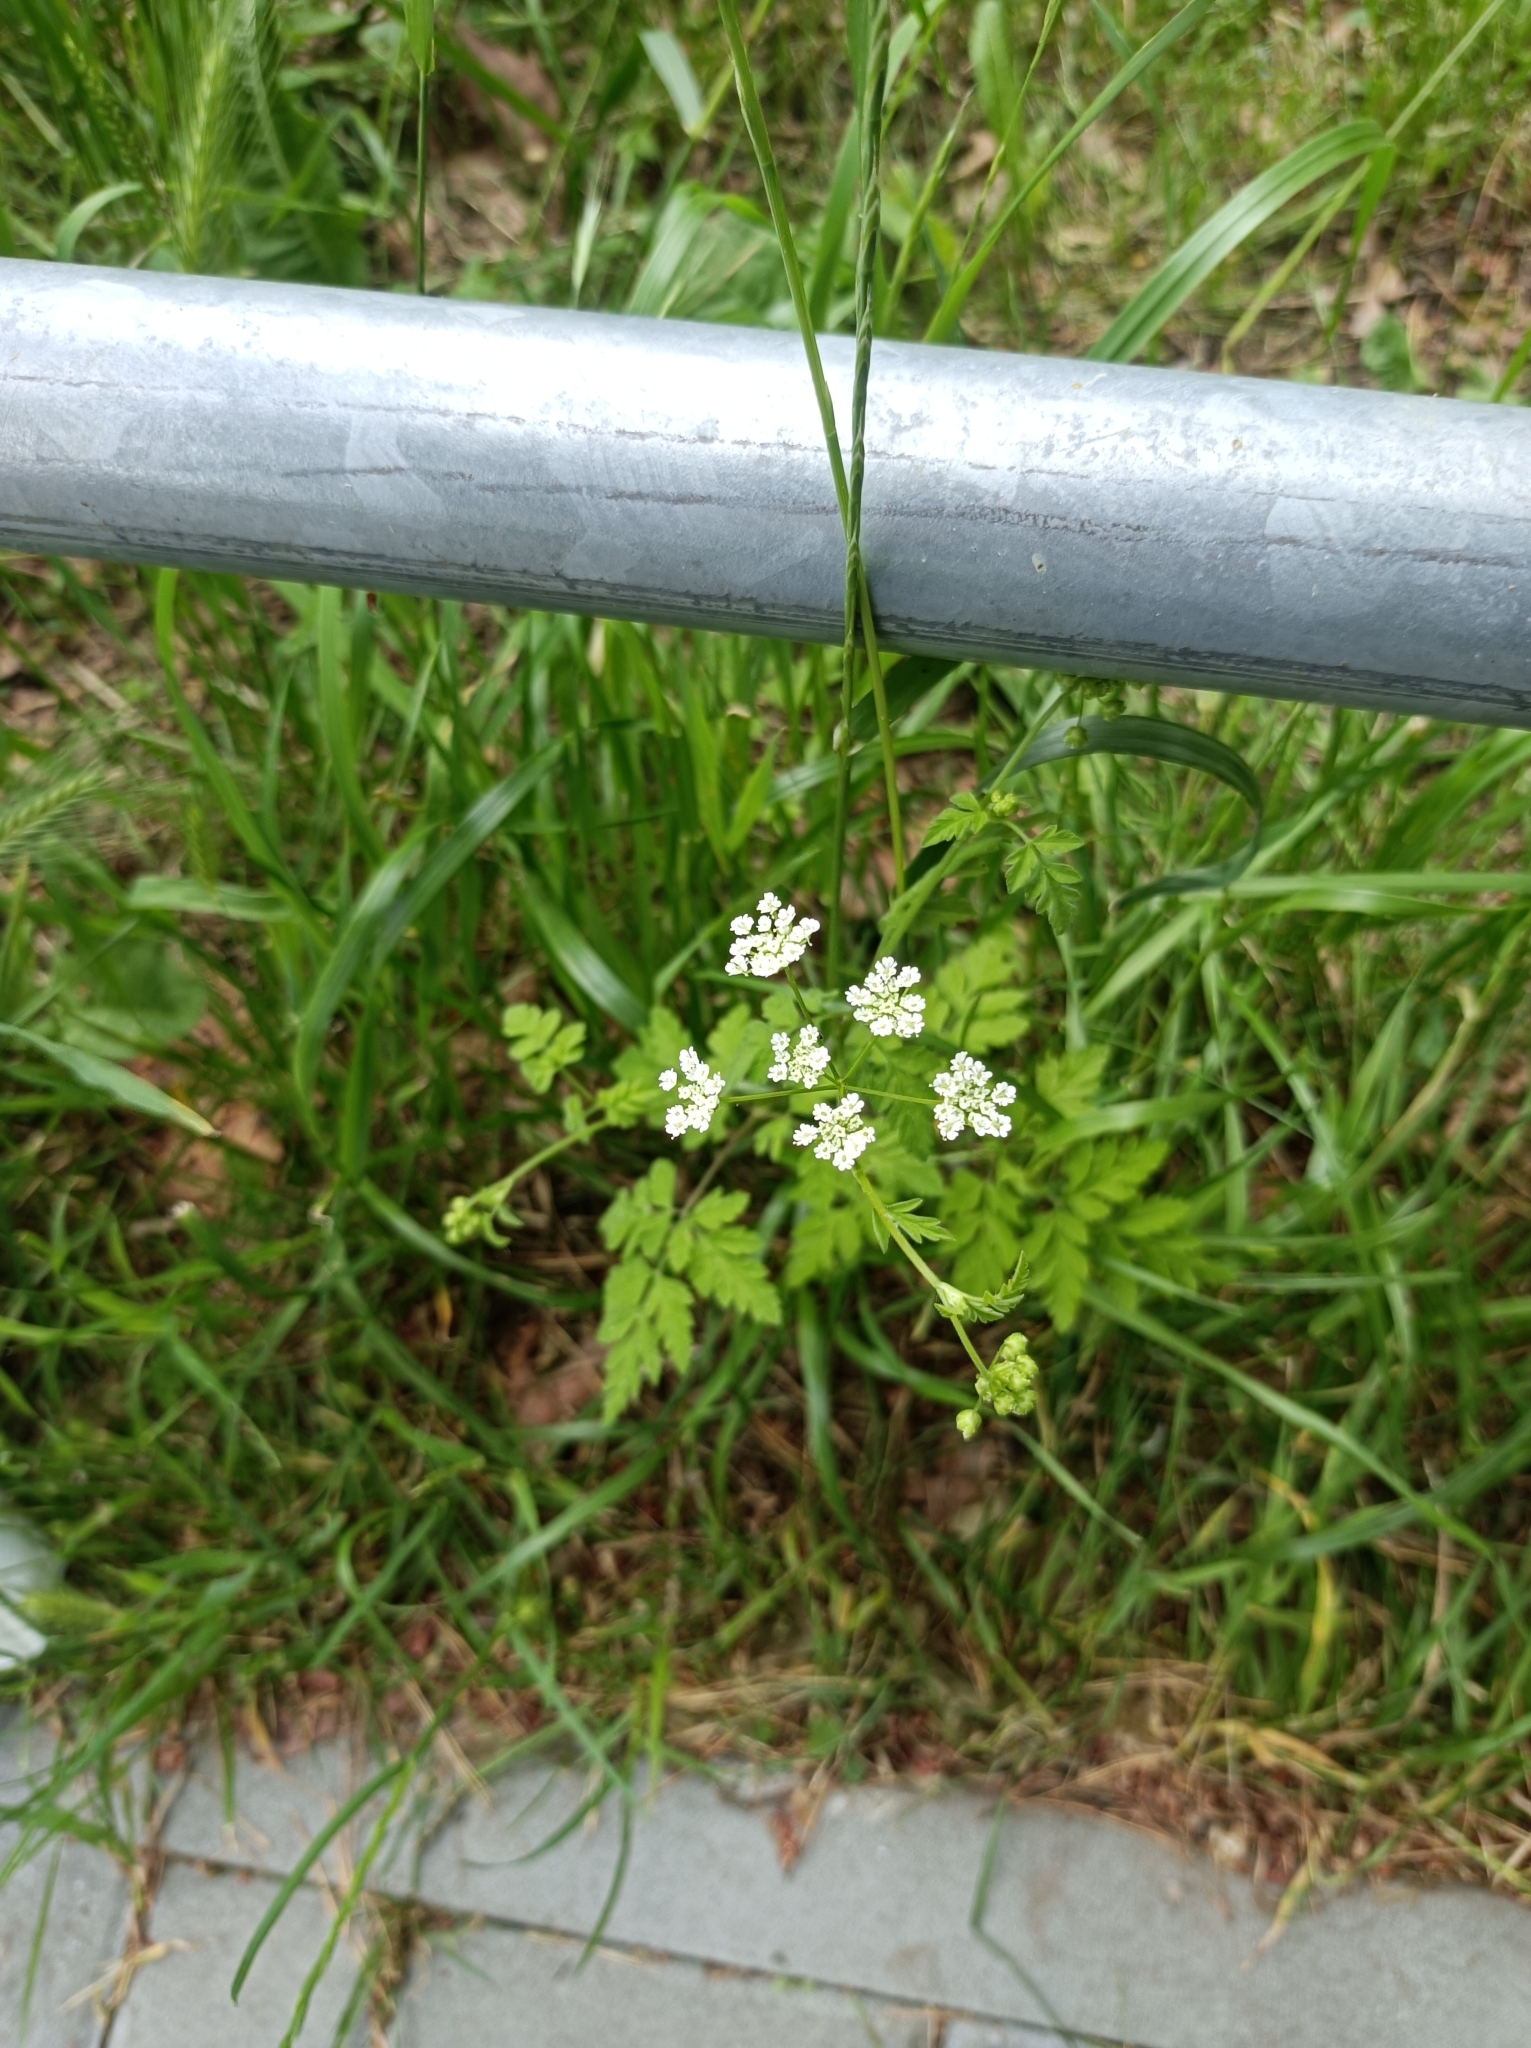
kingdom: Plantae
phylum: Tracheophyta
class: Magnoliopsida
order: Apiales
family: Apiaceae
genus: Chaerophyllum
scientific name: Chaerophyllum temulum
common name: Rough chervil
